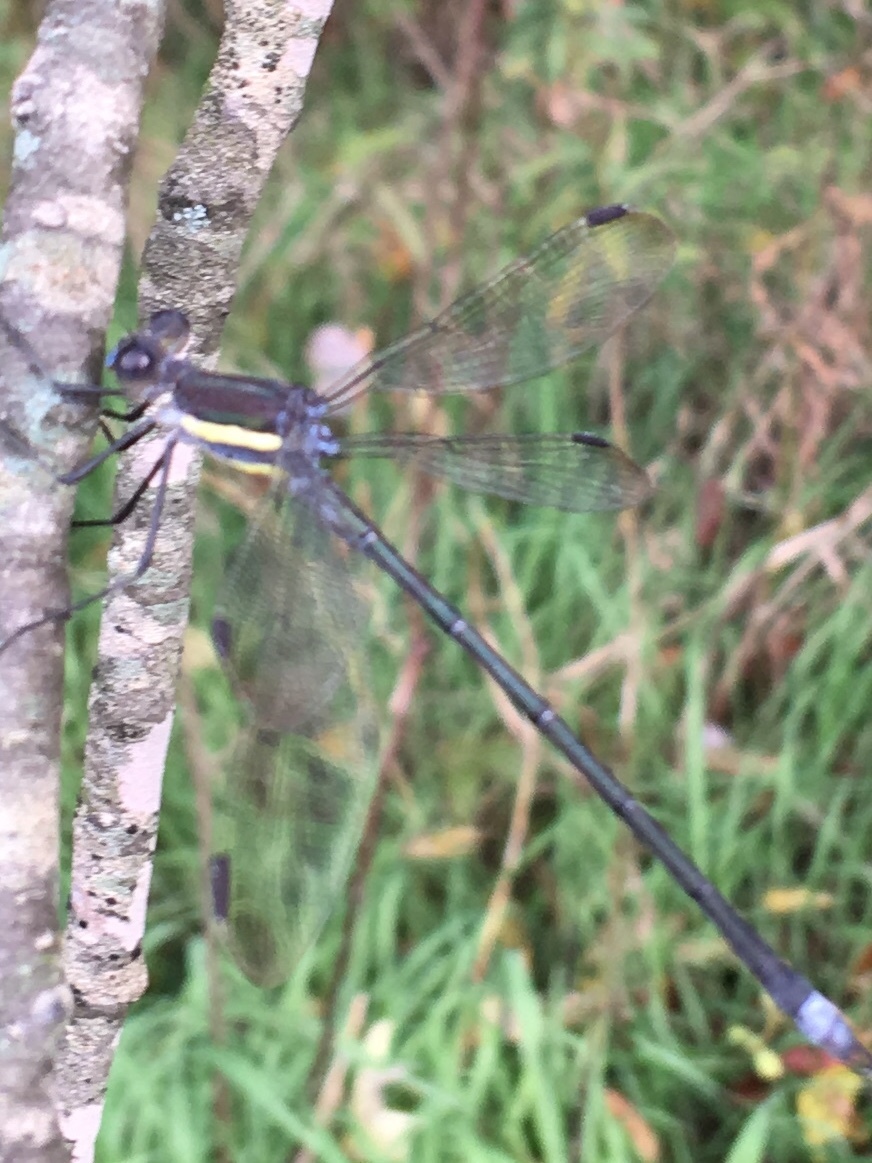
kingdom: Animalia
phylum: Arthropoda
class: Insecta
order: Odonata
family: Lestidae
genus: Archilestes
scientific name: Archilestes grandis
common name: Great spreadwing
